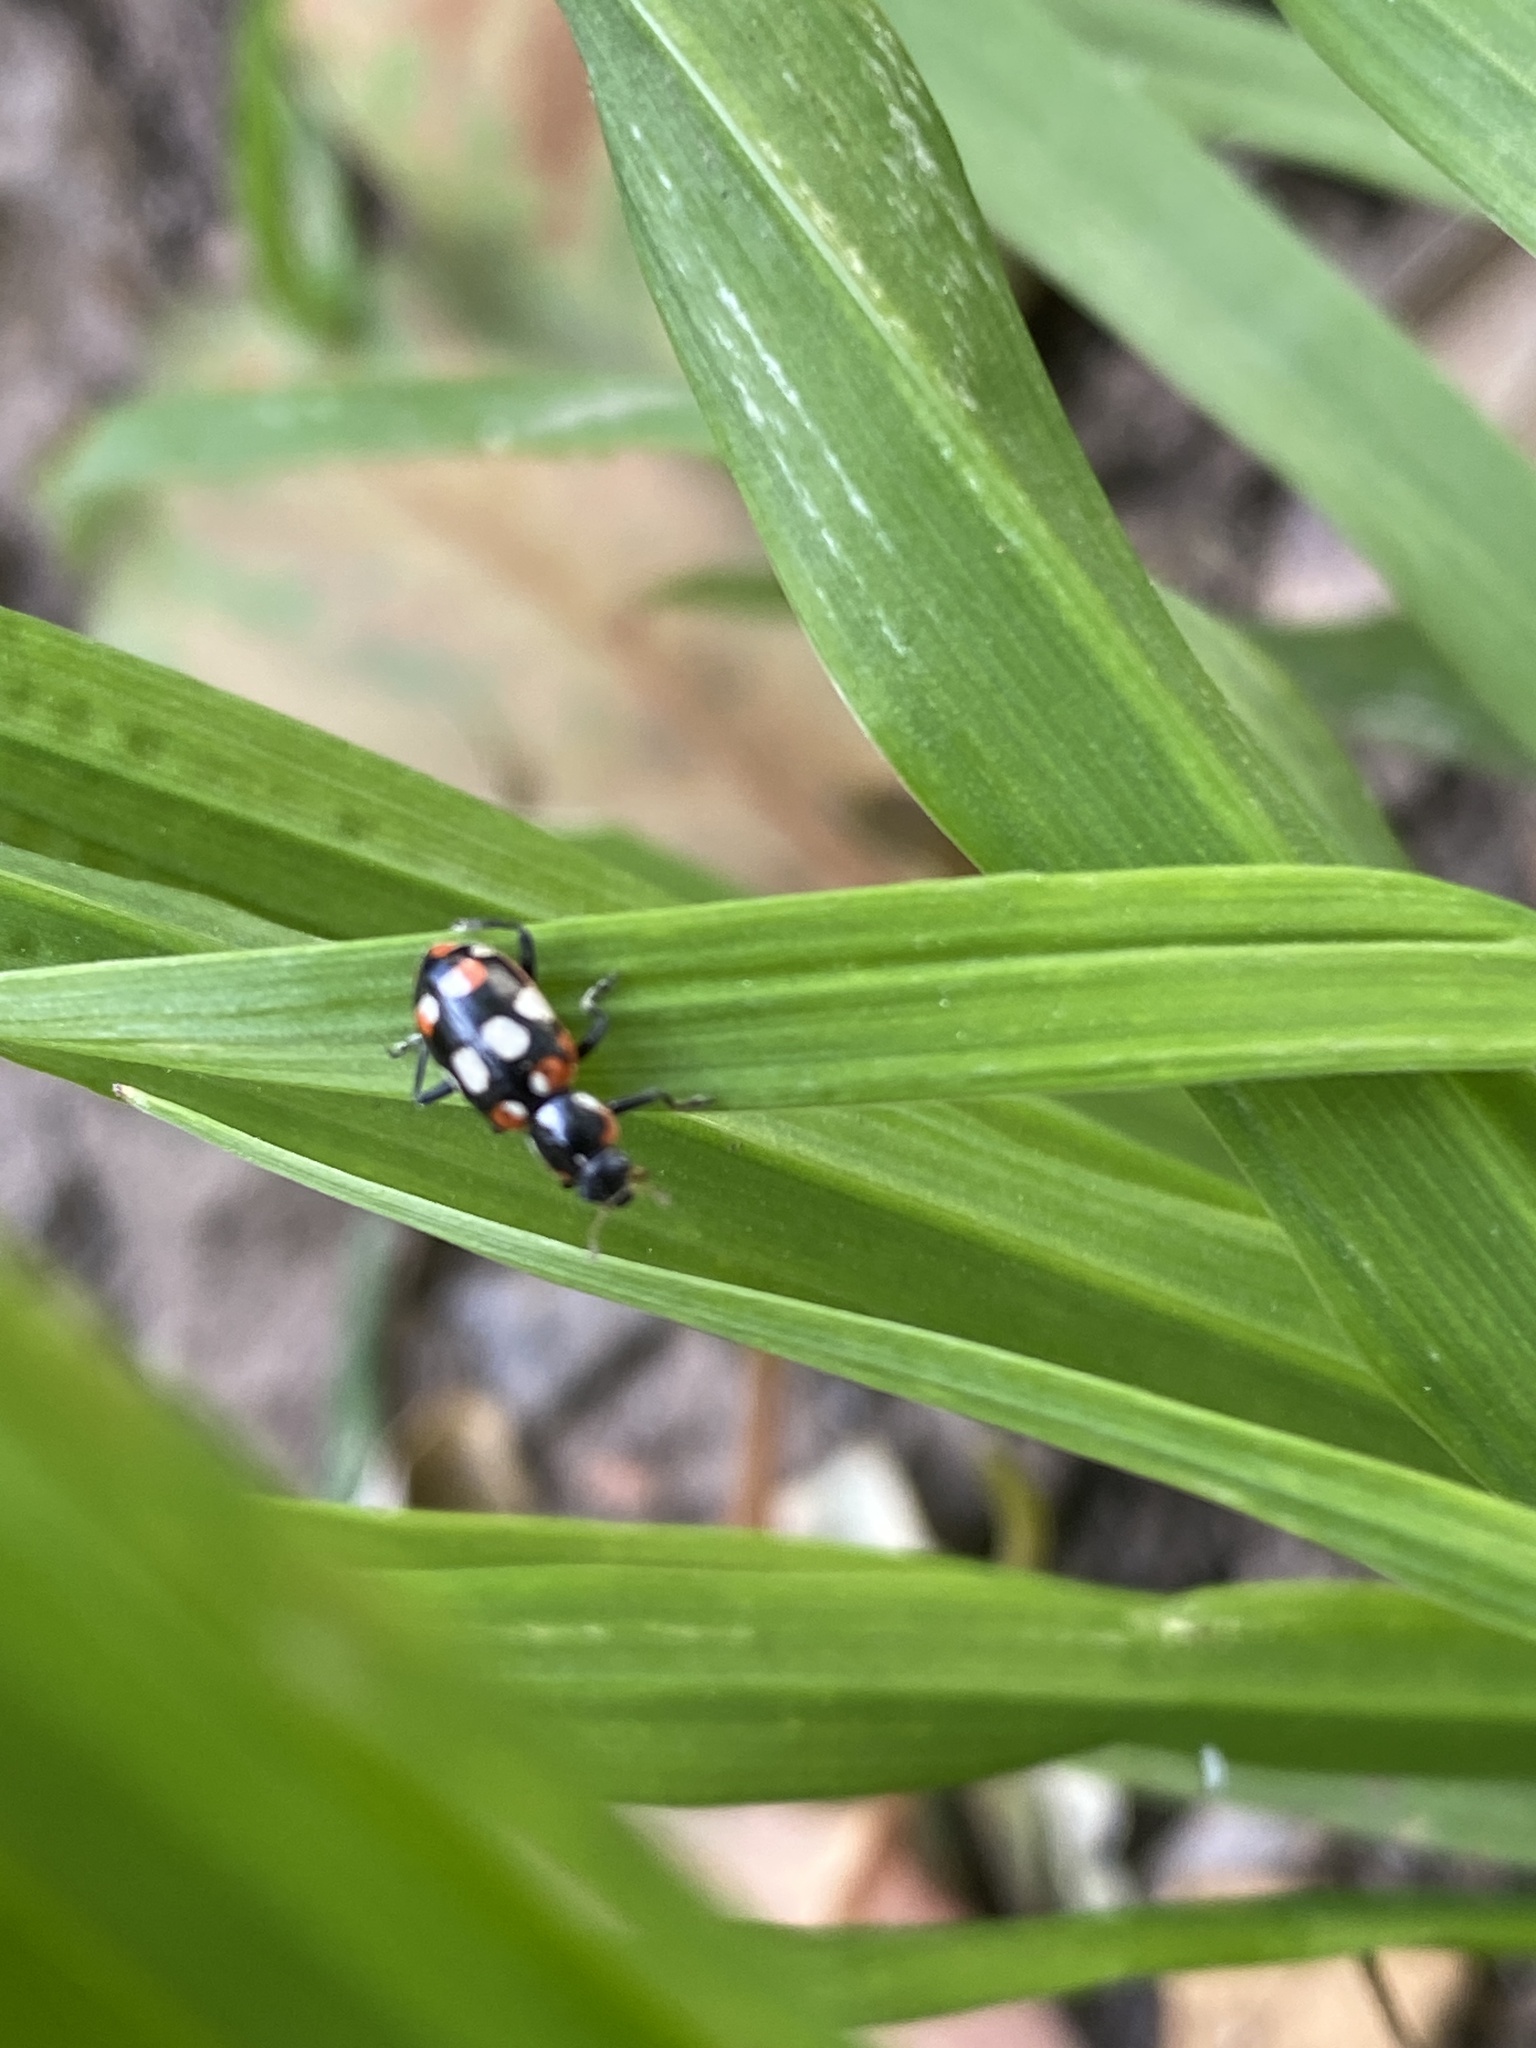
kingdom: Animalia
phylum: Arthropoda
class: Insecta
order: Coleoptera
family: Coccinellidae
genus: Eriopis
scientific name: Eriopis connexa
